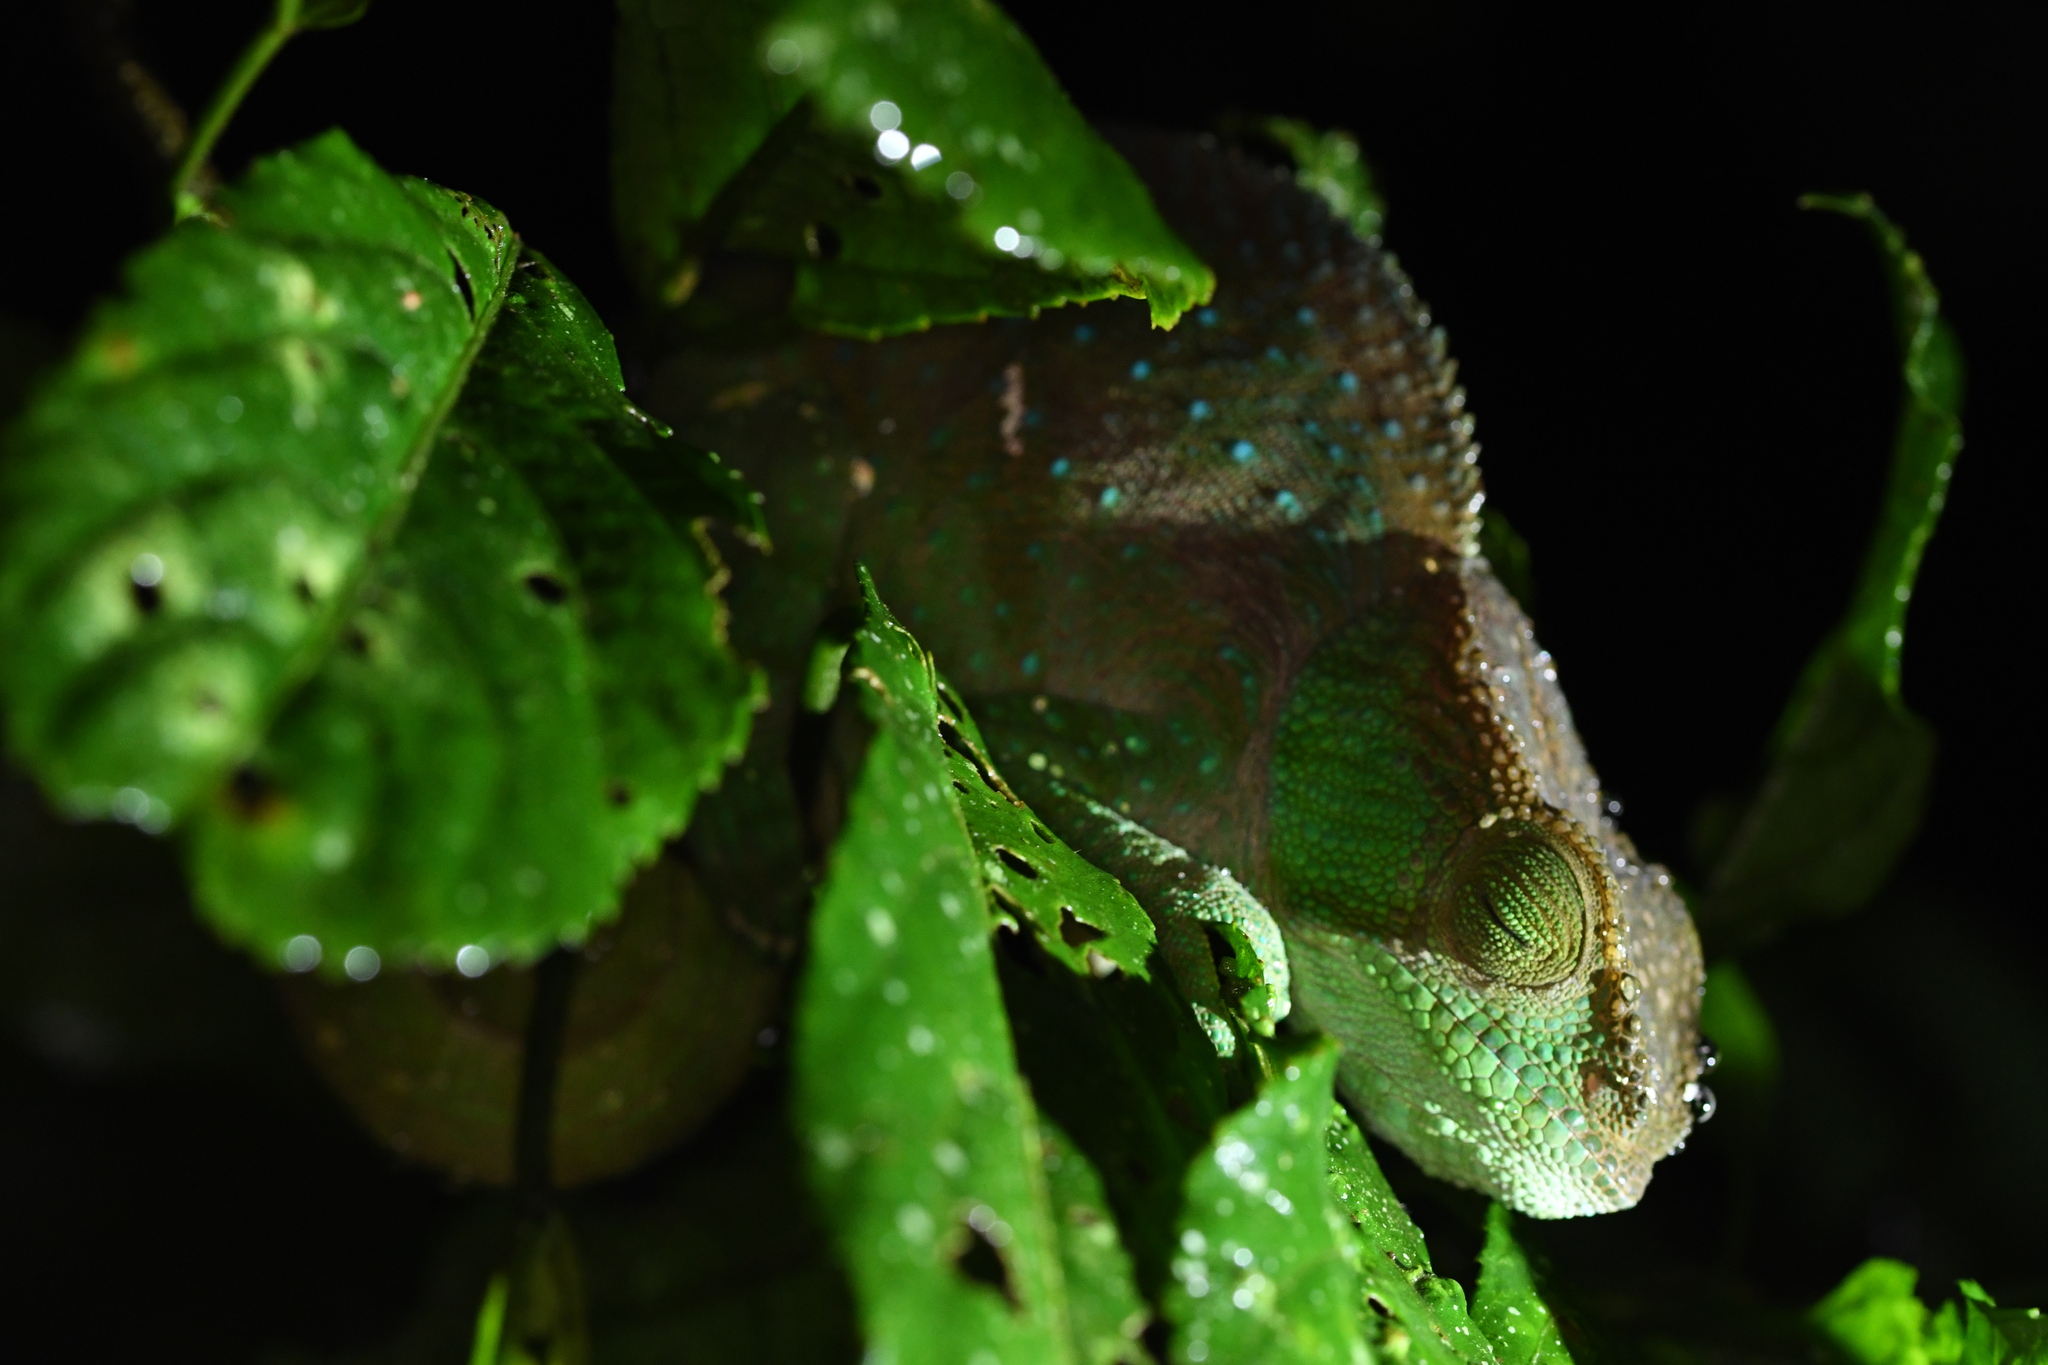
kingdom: Animalia
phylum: Chordata
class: Squamata
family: Chamaeleonidae
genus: Calumma
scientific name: Calumma oshaughnessyi
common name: O'shaughnessy's chameleon
